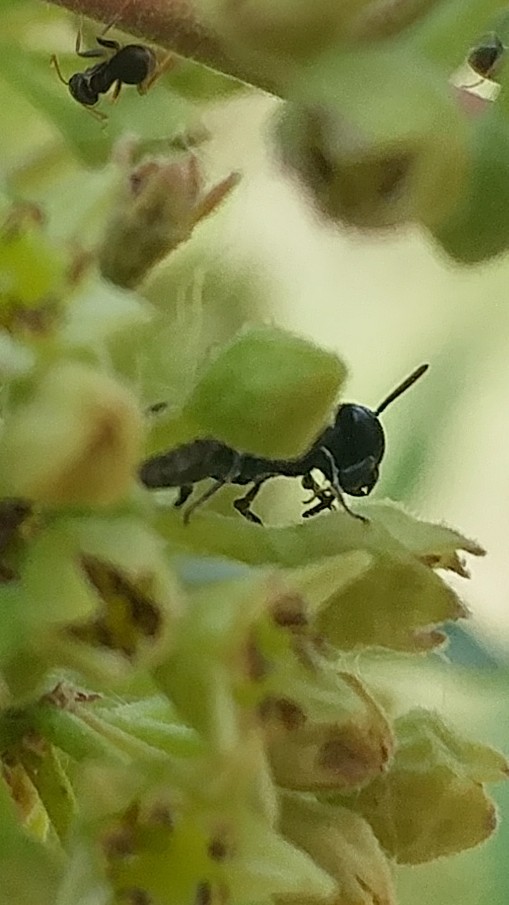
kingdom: Animalia
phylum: Arthropoda
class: Insecta
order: Hymenoptera
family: Colletidae
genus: Hylaeus
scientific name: Hylaeus
